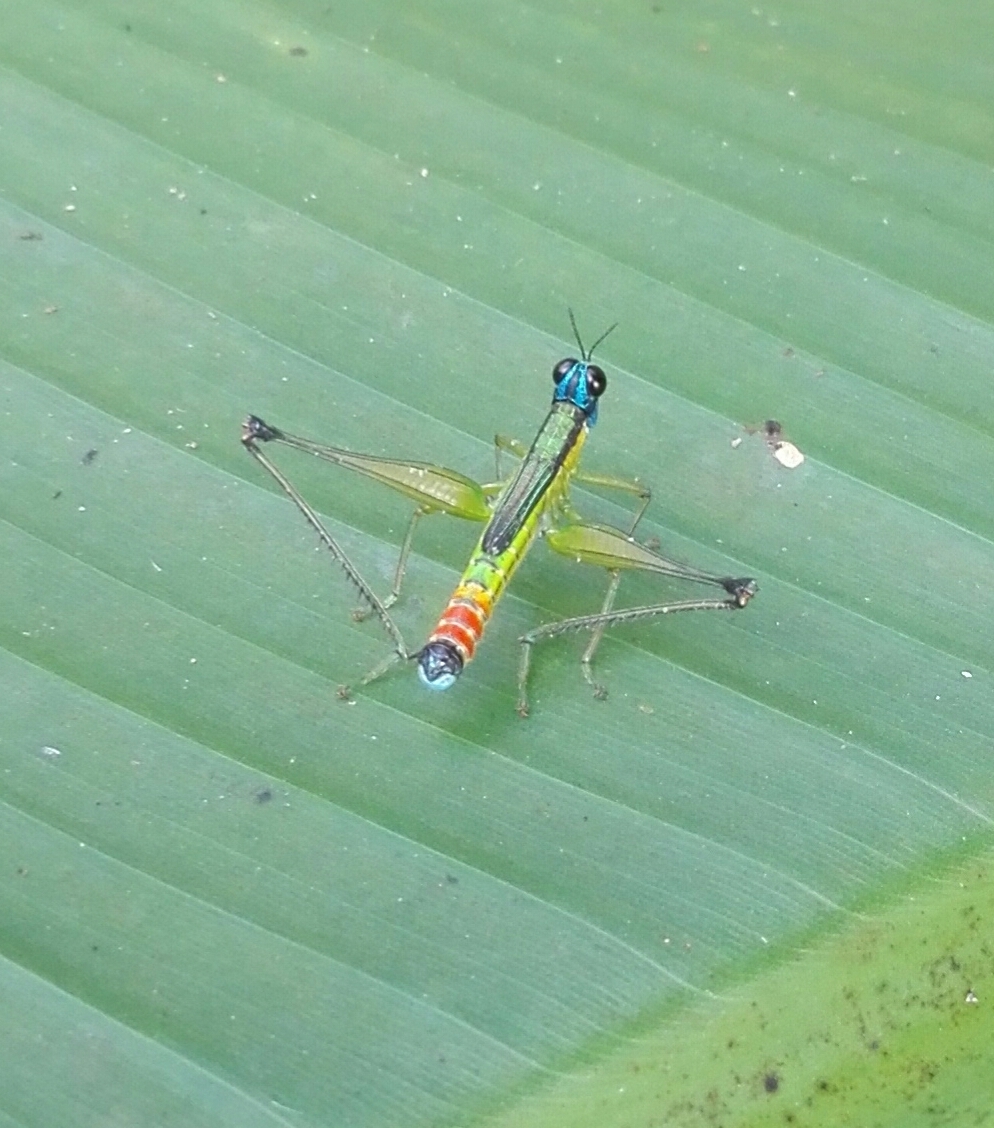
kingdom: Animalia
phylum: Arthropoda
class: Insecta
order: Orthoptera
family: Eumastacidae
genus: Eumastax
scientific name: Eumastax salazari
